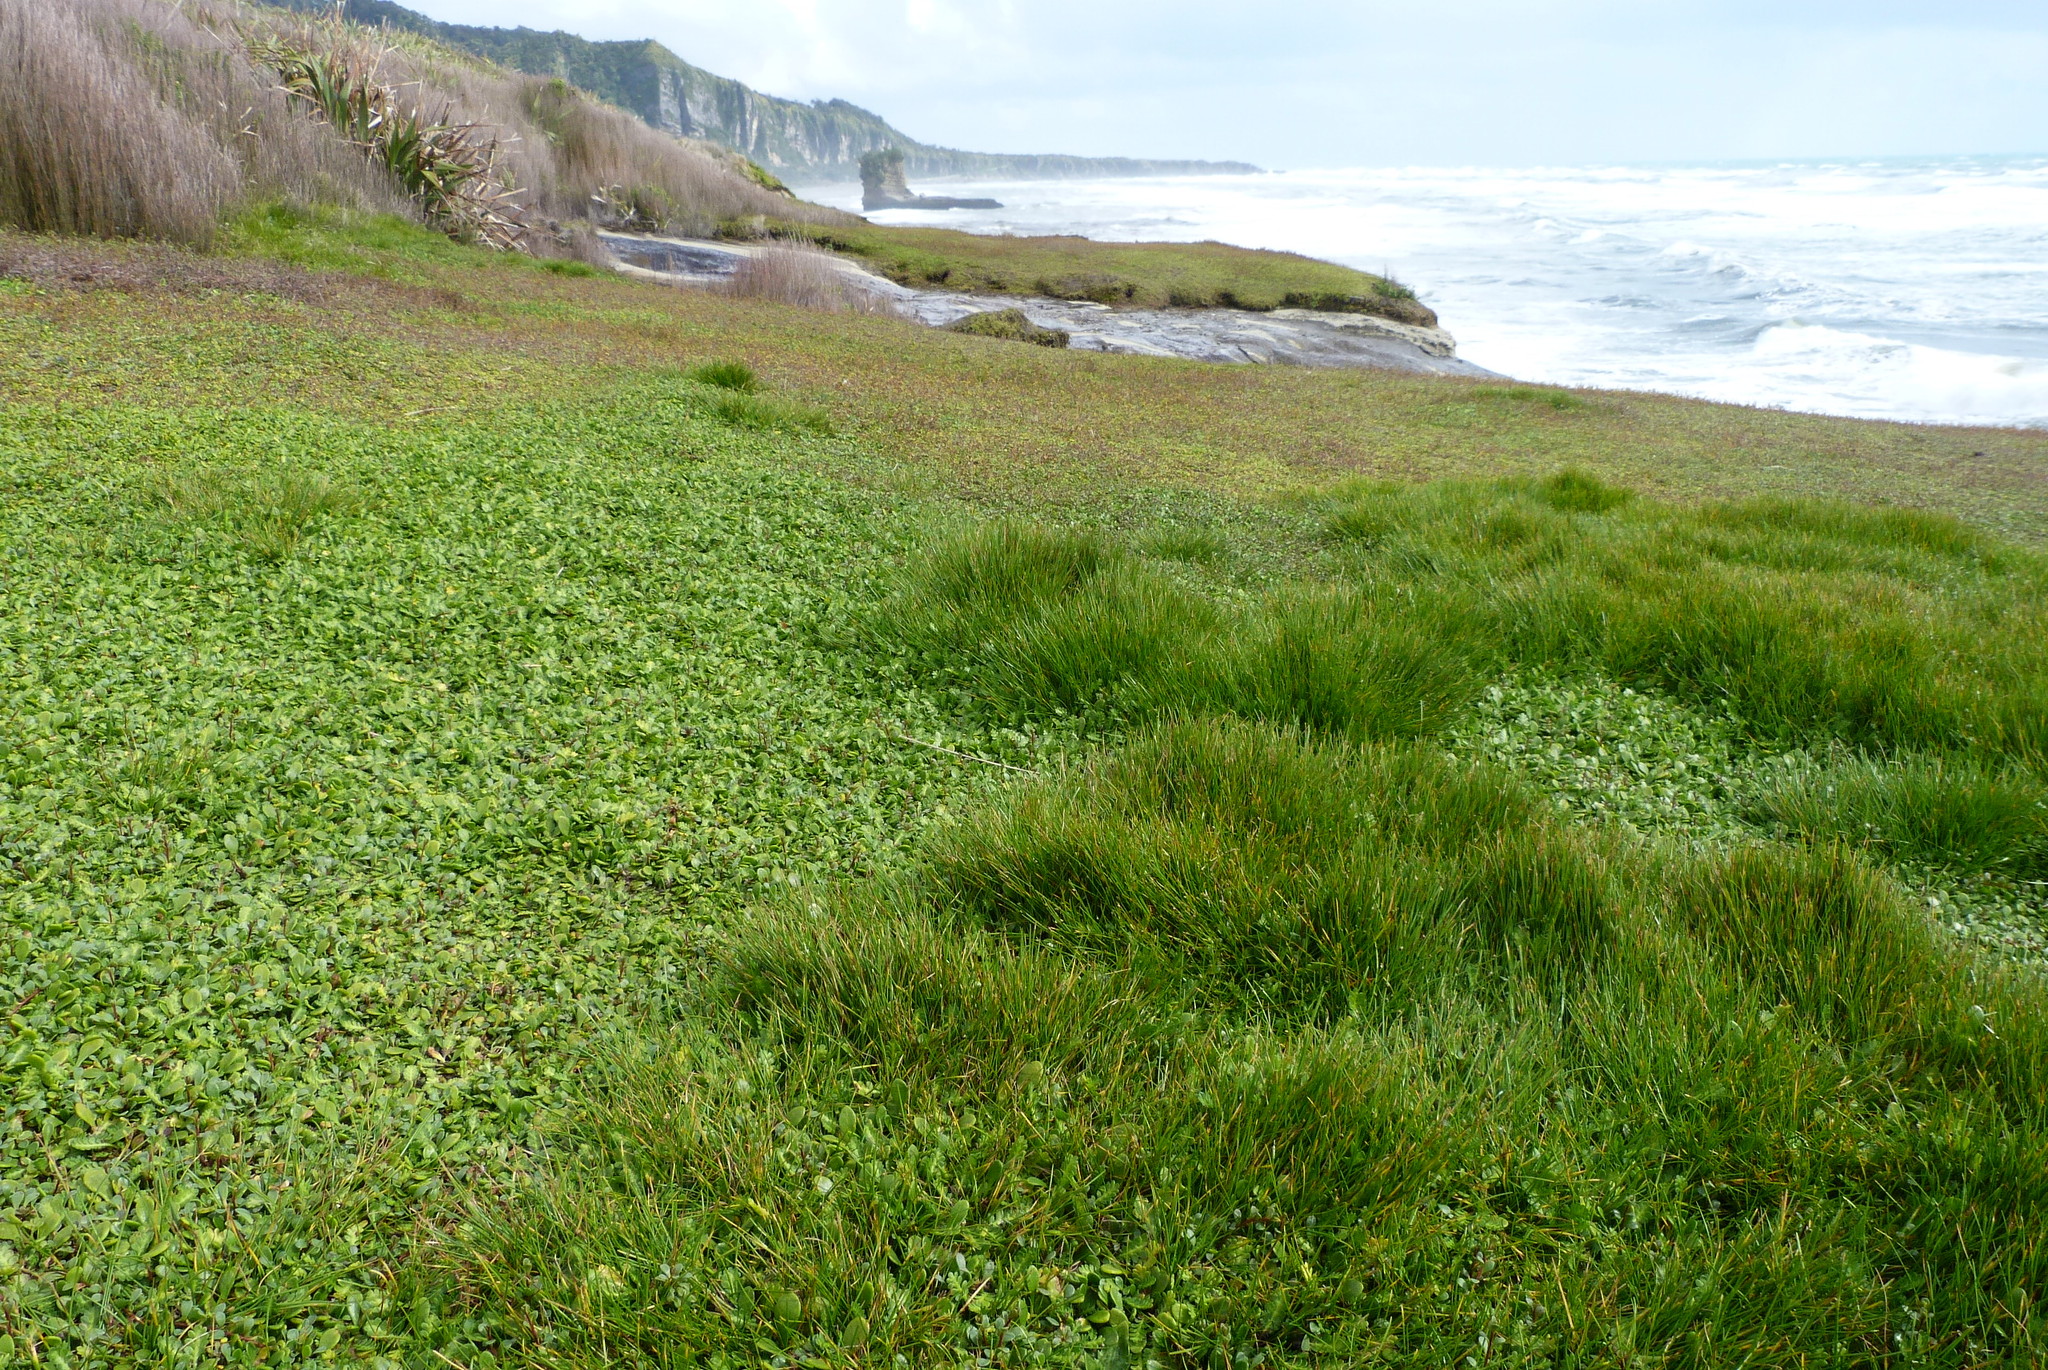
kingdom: Plantae
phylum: Tracheophyta
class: Liliopsida
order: Poales
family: Cyperaceae
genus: Isolepis
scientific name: Isolepis cernua
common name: Slender club-rush
